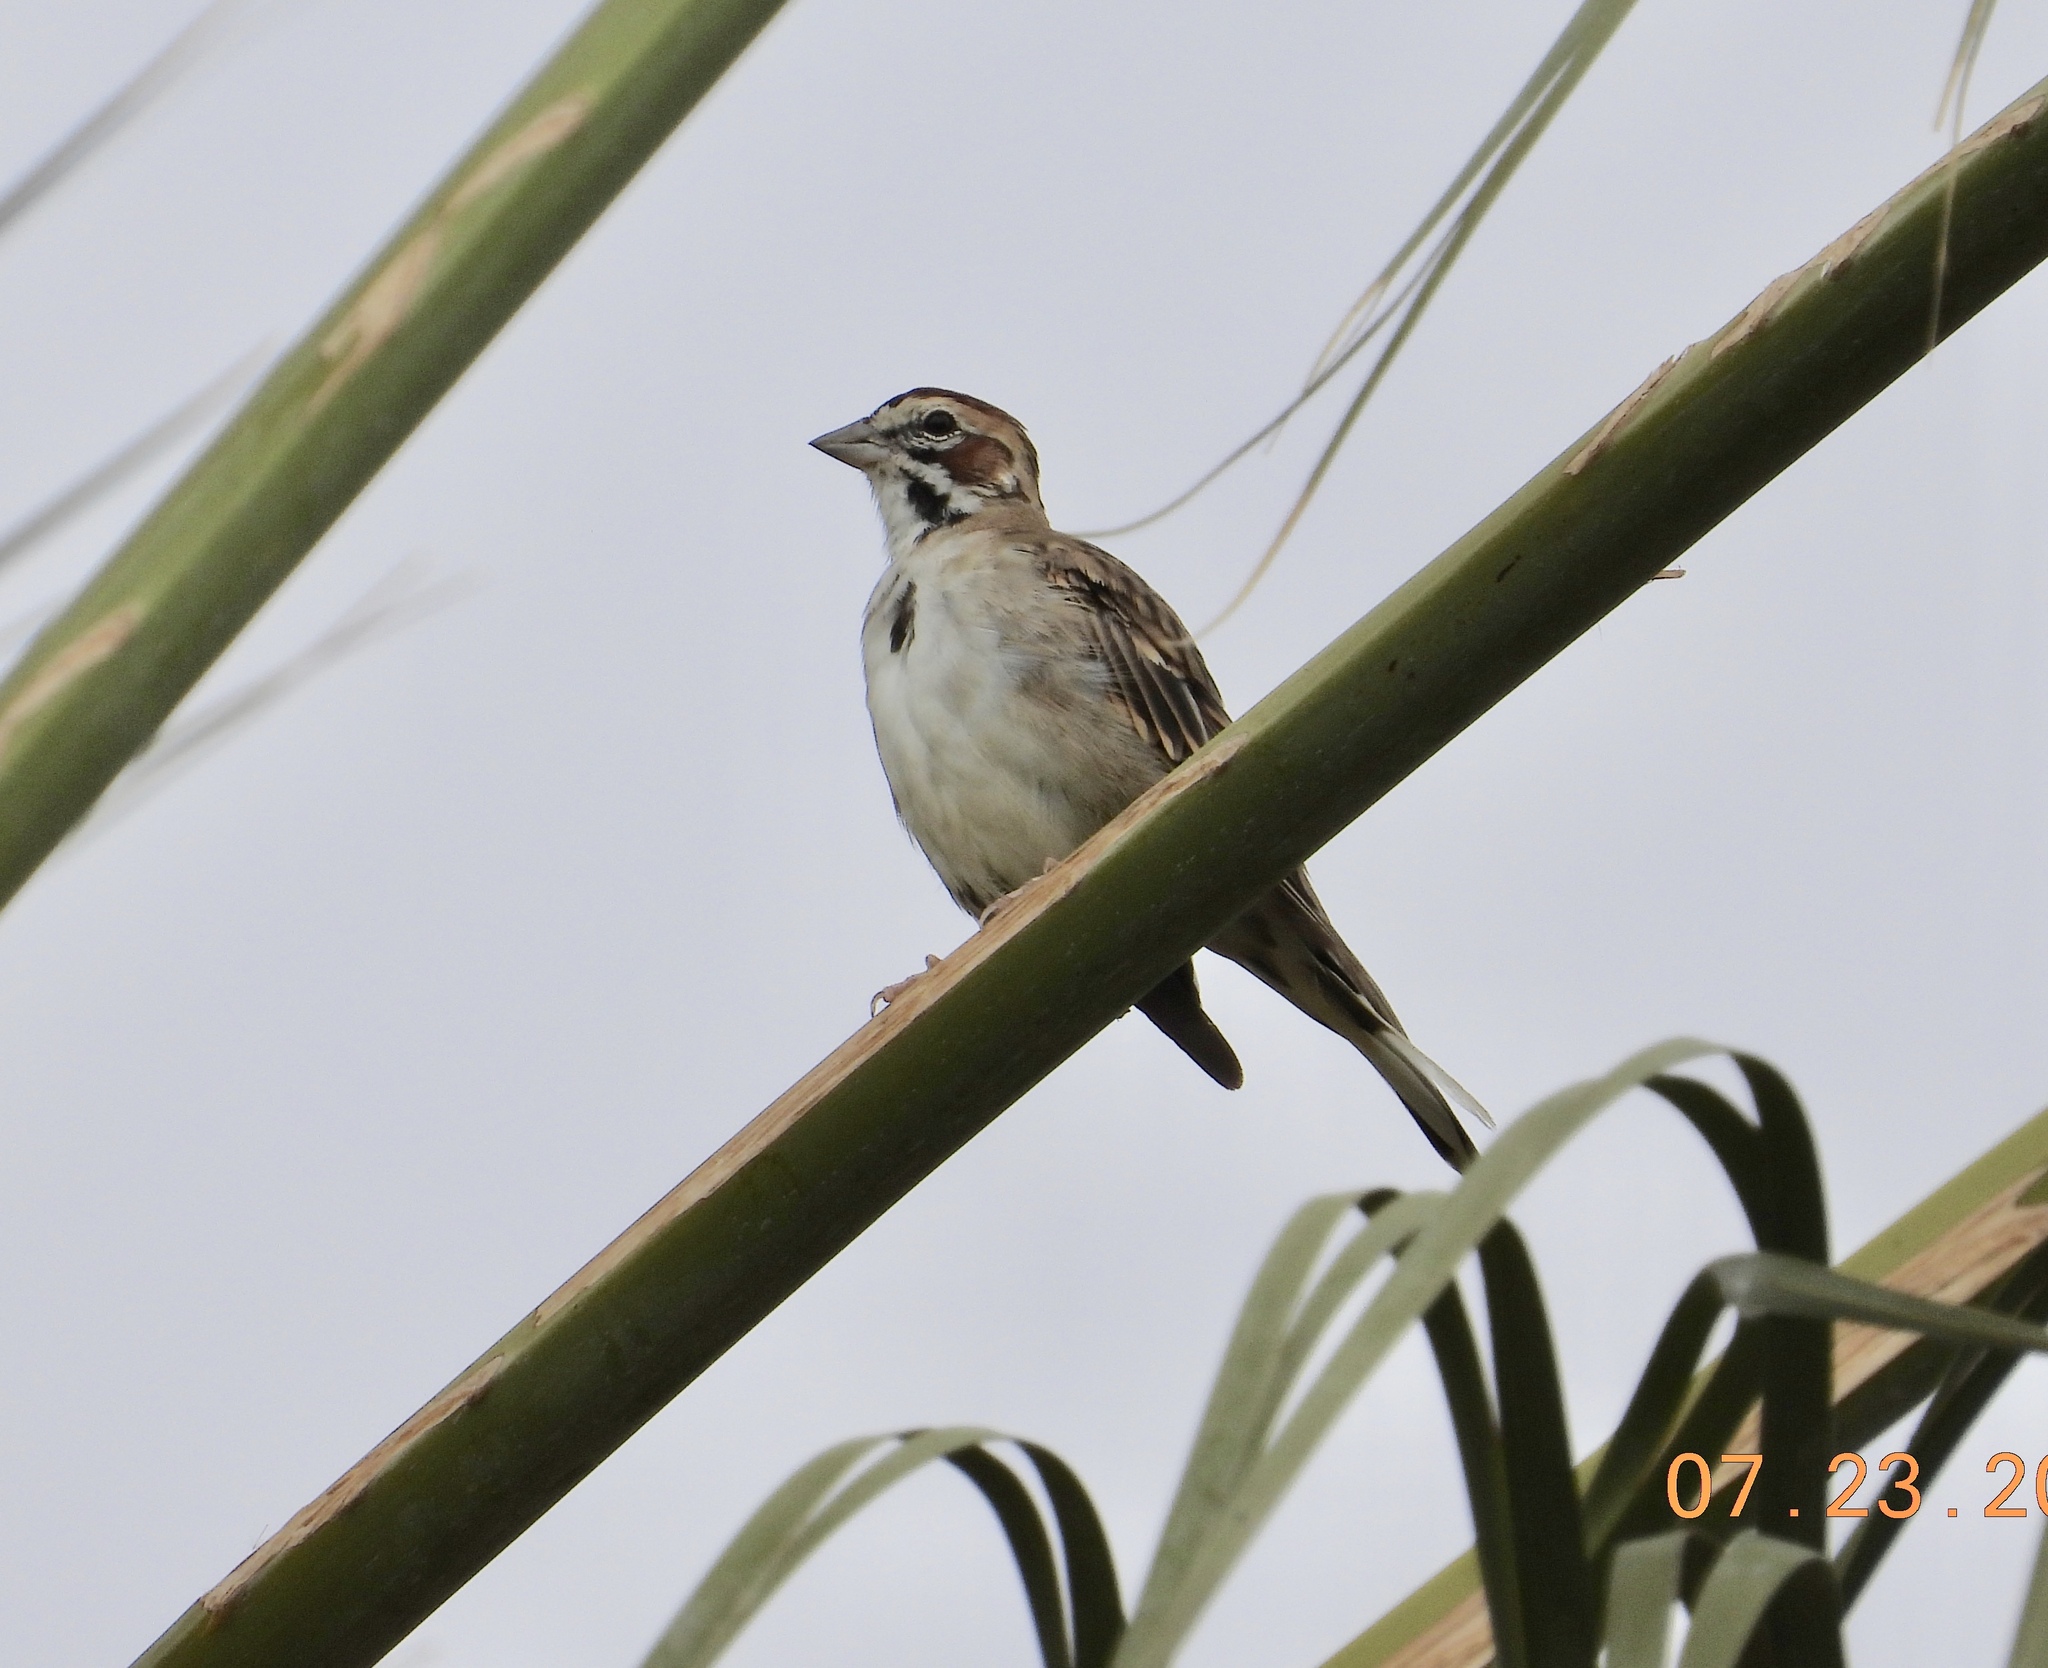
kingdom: Animalia
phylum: Chordata
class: Aves
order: Passeriformes
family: Passerellidae
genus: Chondestes
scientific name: Chondestes grammacus
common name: Lark sparrow
